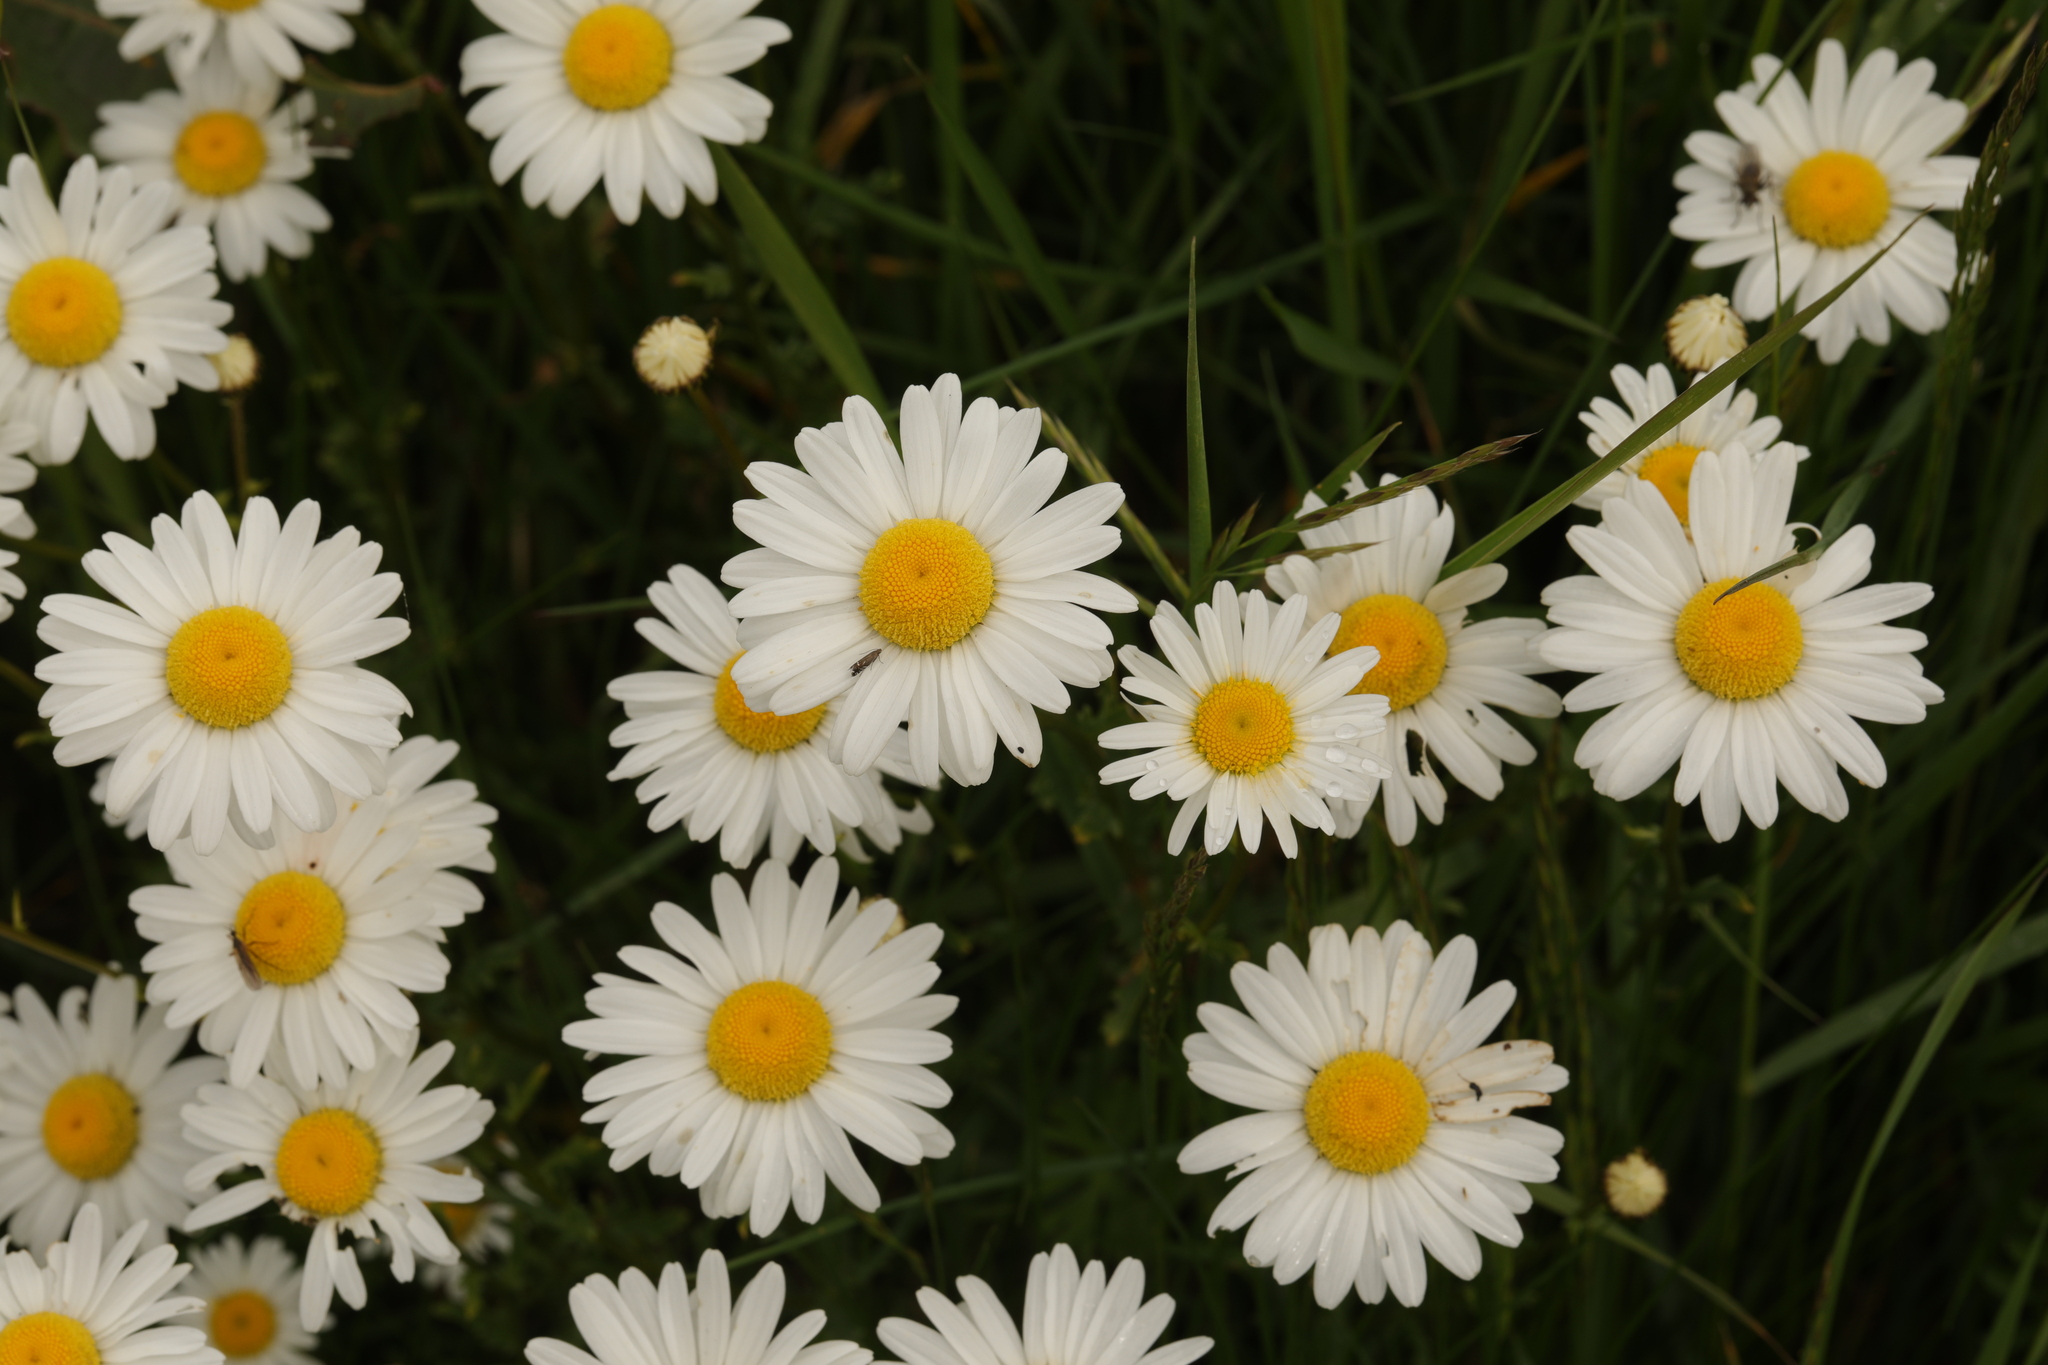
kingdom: Plantae
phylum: Tracheophyta
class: Magnoliopsida
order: Asterales
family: Asteraceae
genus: Leucanthemum
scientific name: Leucanthemum vulgare
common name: Oxeye daisy
